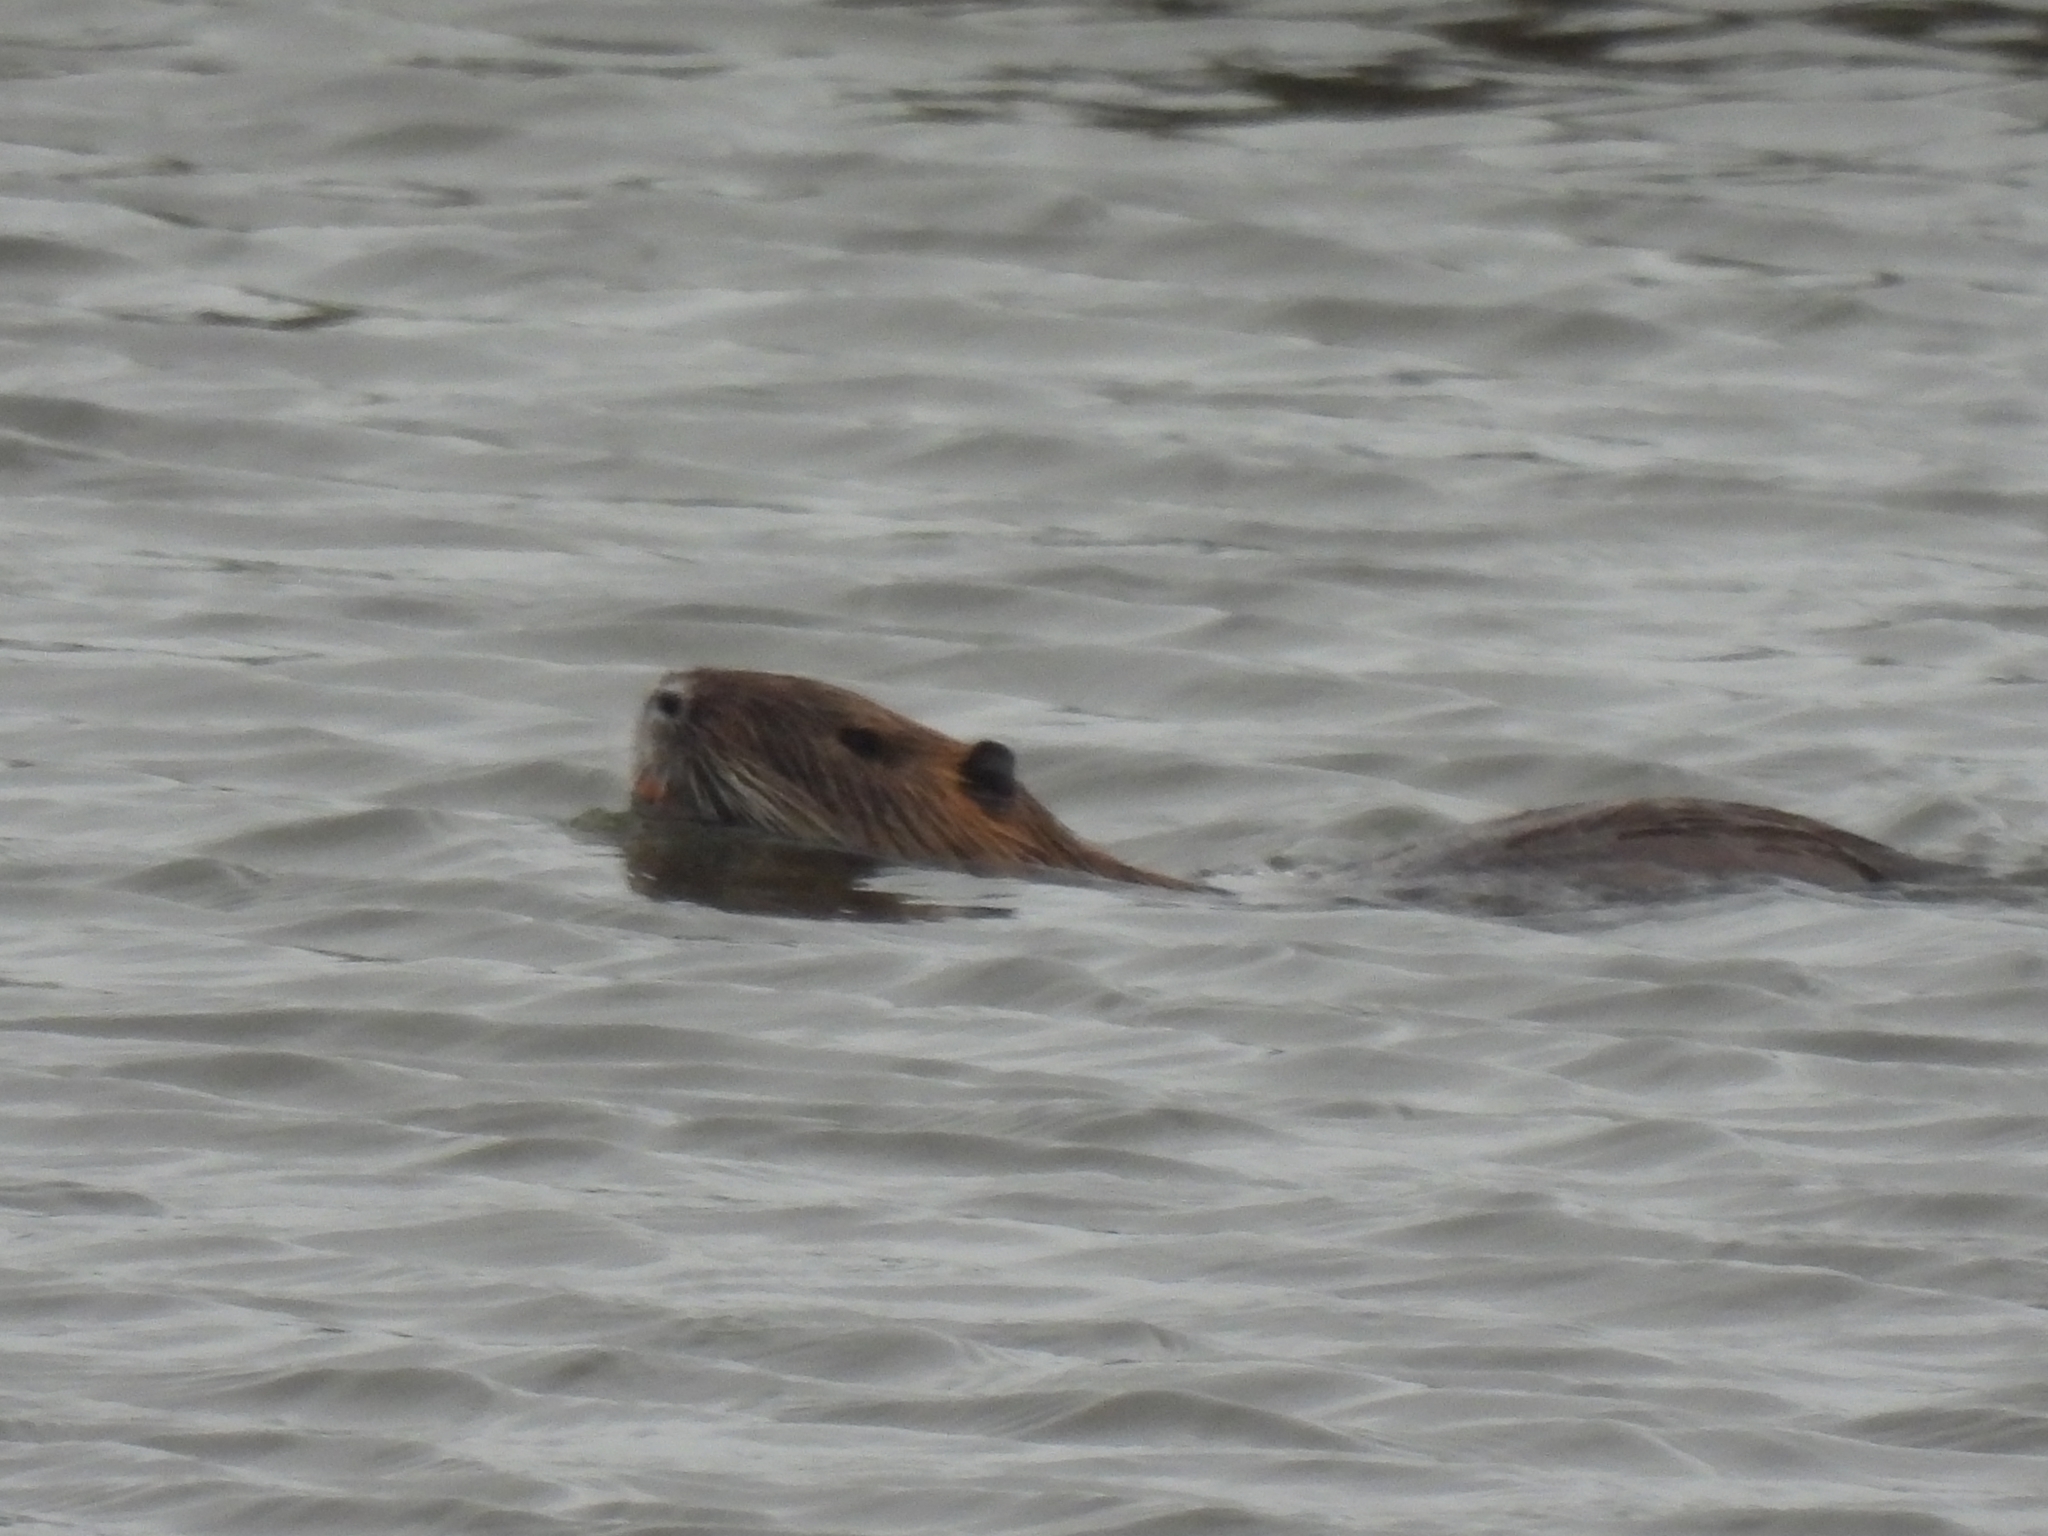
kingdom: Animalia
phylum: Chordata
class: Mammalia
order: Rodentia
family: Myocastoridae
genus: Myocastor
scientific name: Myocastor coypus
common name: Coypu
